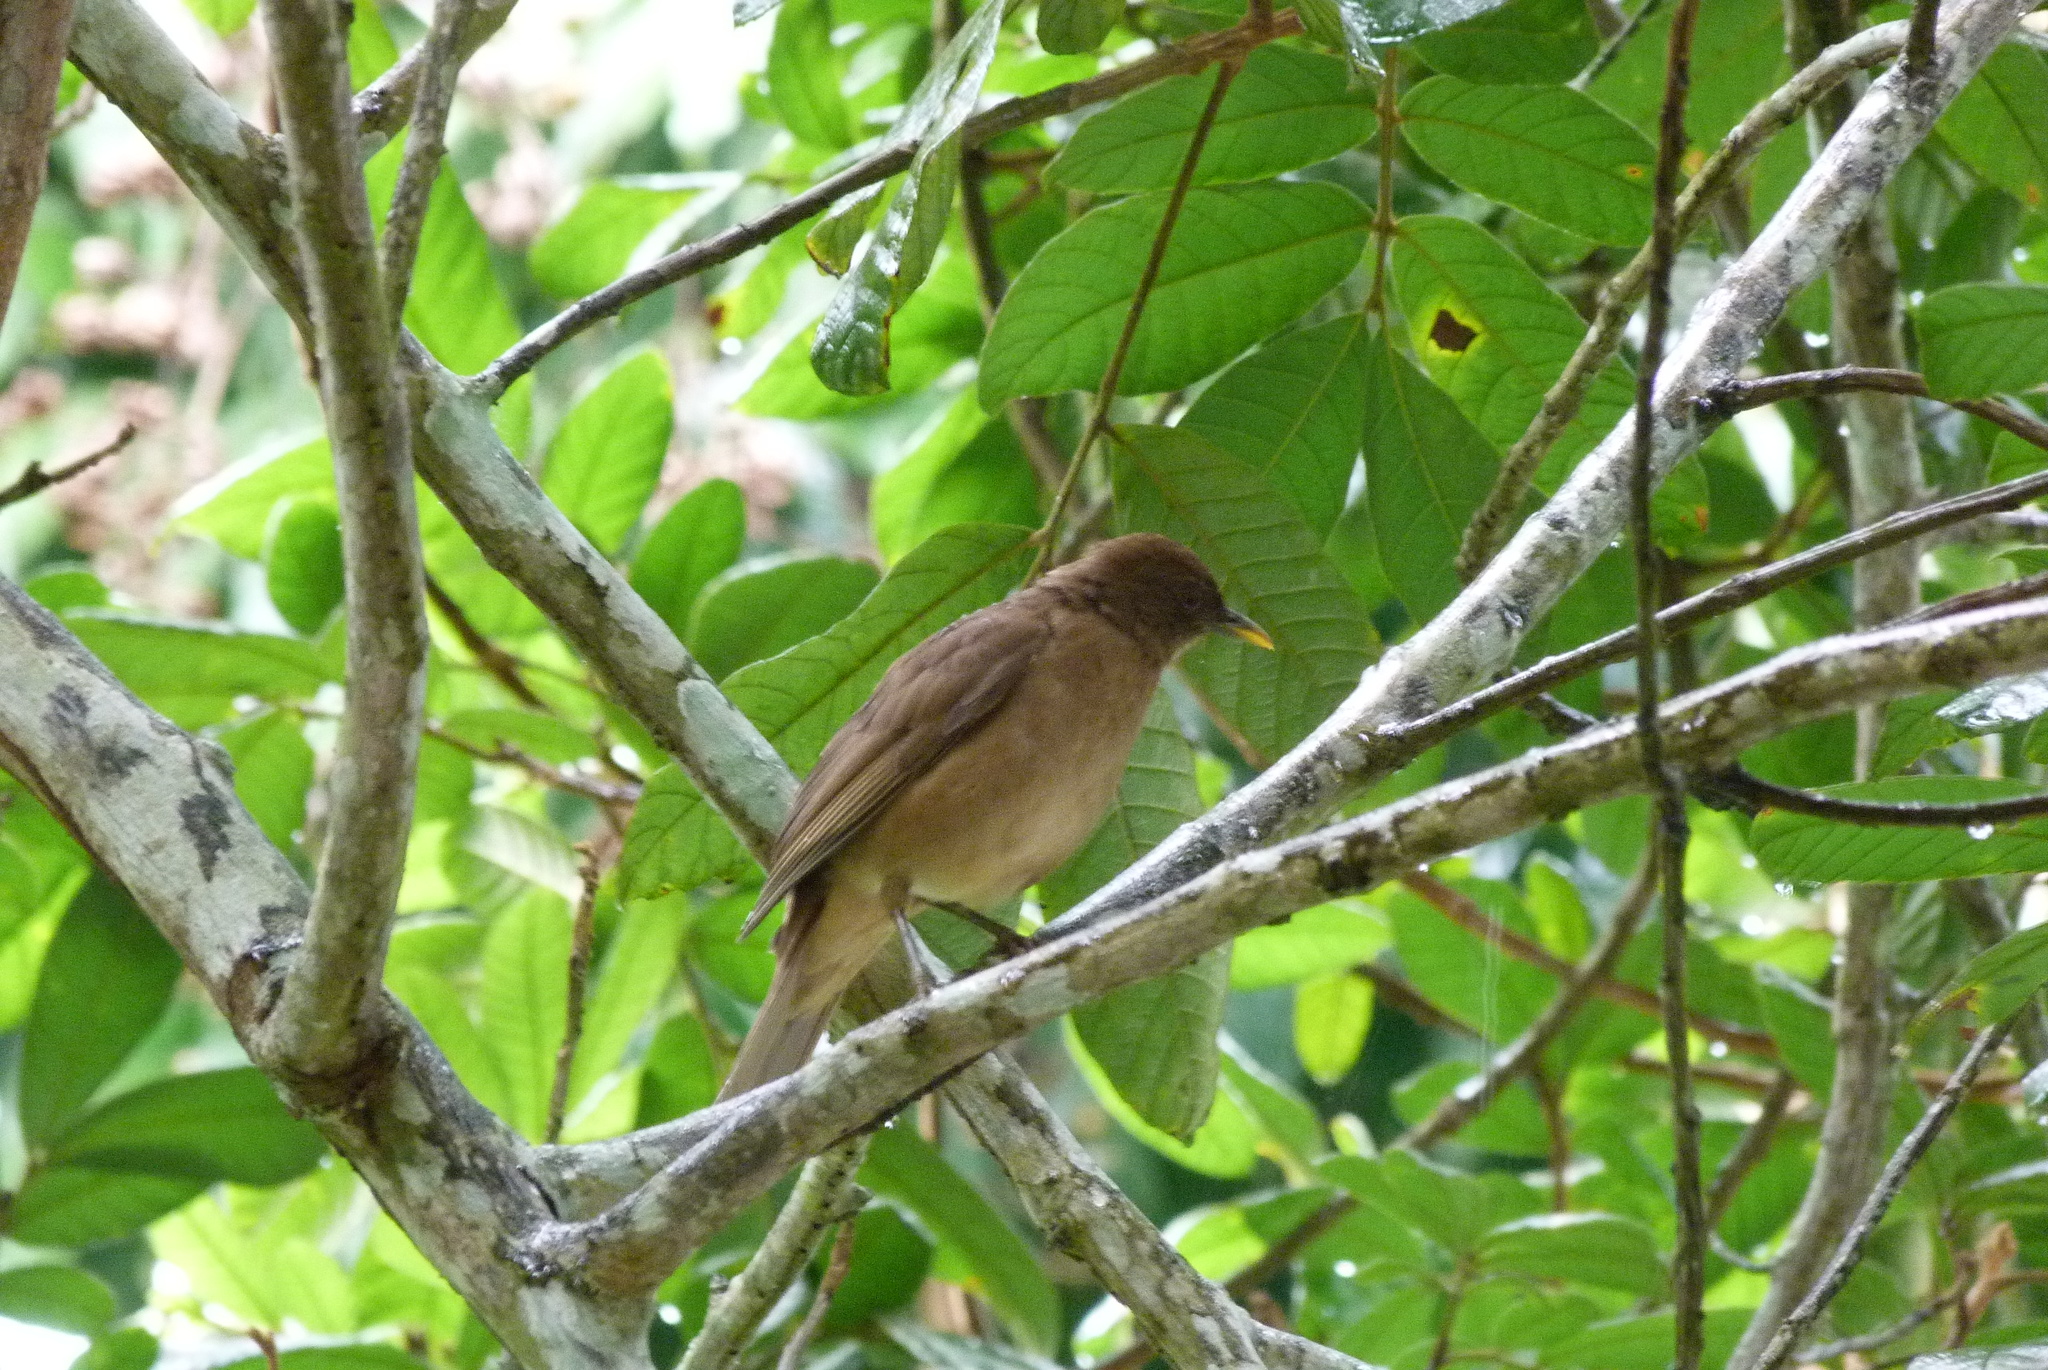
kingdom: Animalia
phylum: Chordata
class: Aves
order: Passeriformes
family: Turdidae
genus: Turdus
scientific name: Turdus grayi
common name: Clay-colored thrush
